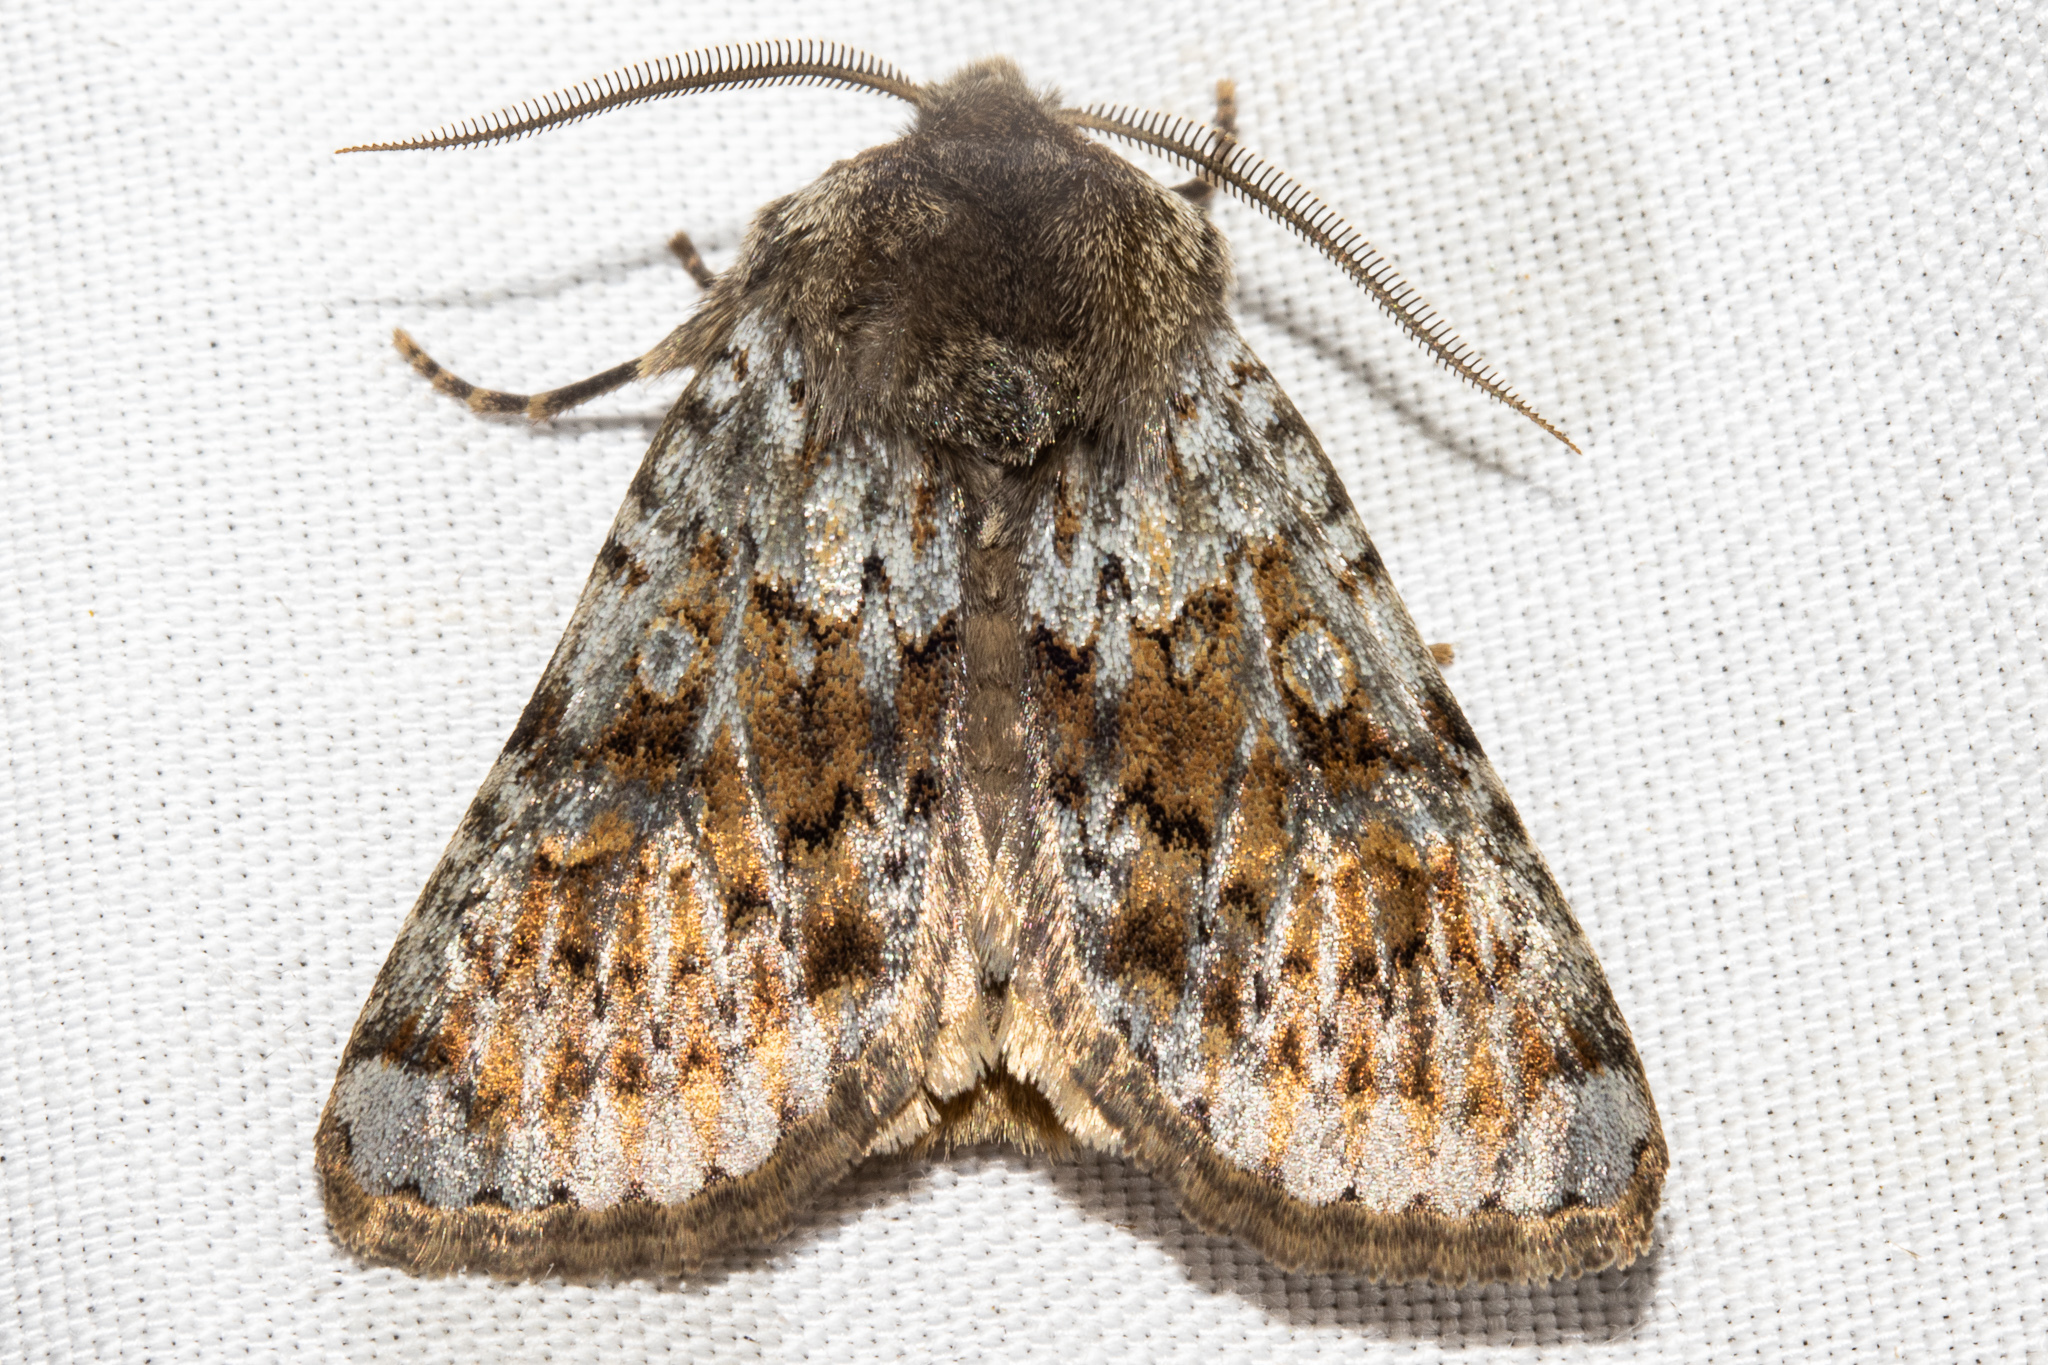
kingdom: Animalia
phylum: Arthropoda
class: Insecta
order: Lepidoptera
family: Noctuidae
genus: Ichneutica
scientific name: Ichneutica
